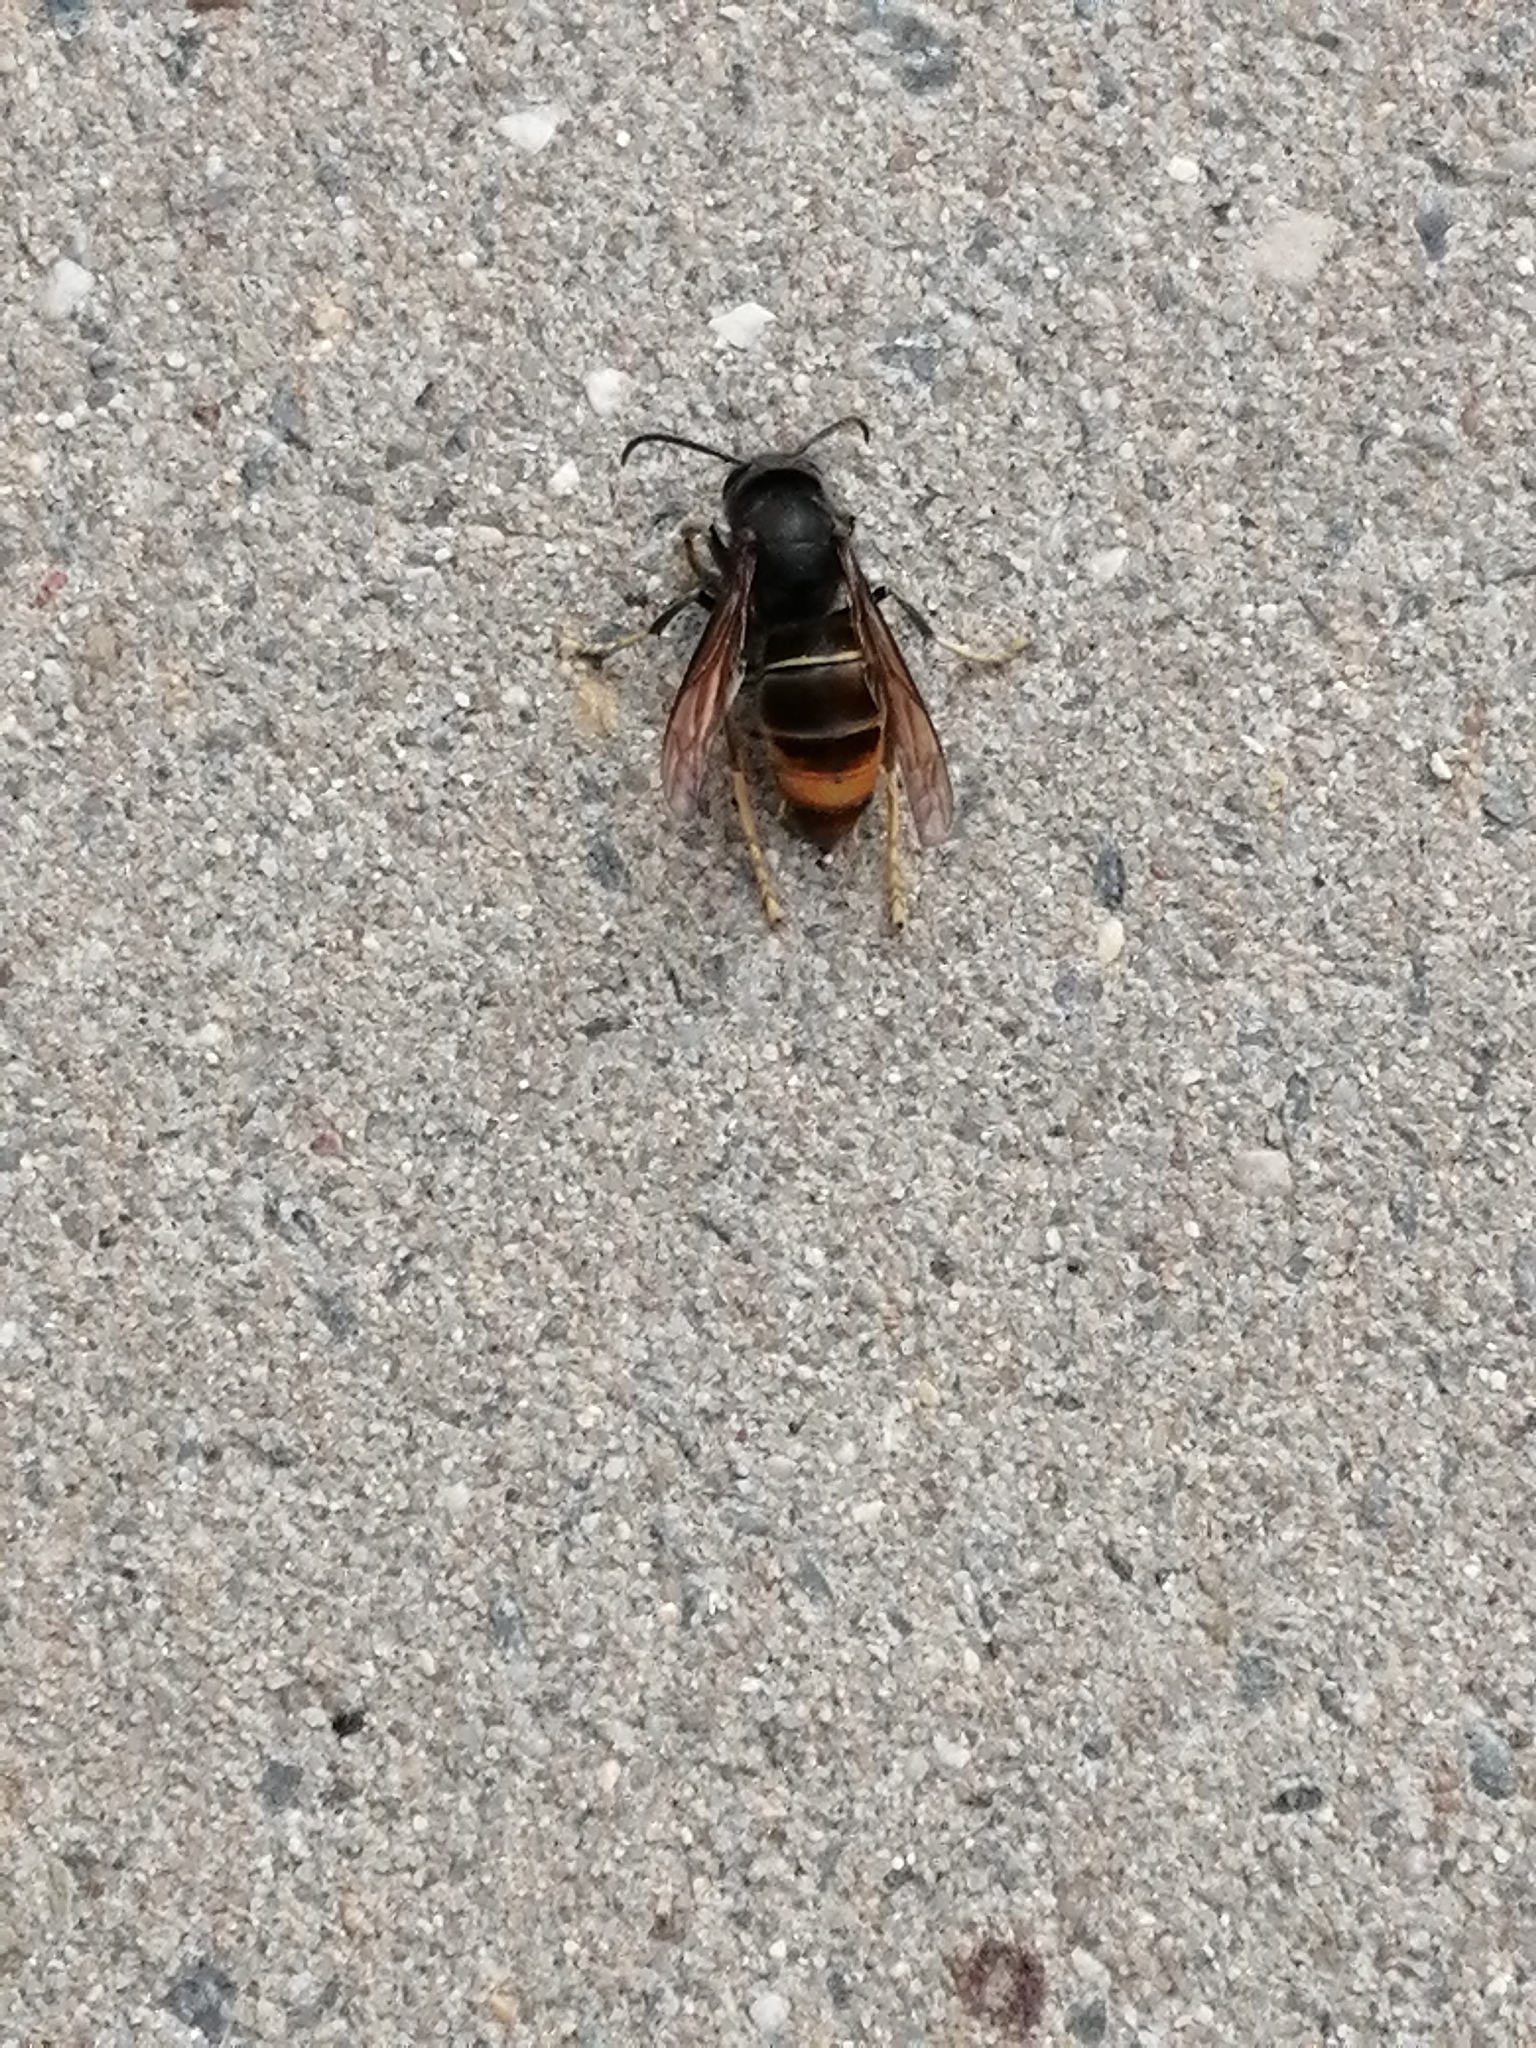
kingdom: Animalia
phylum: Arthropoda
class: Insecta
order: Hymenoptera
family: Vespidae
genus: Vespa
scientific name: Vespa velutina
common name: Asian hornet
